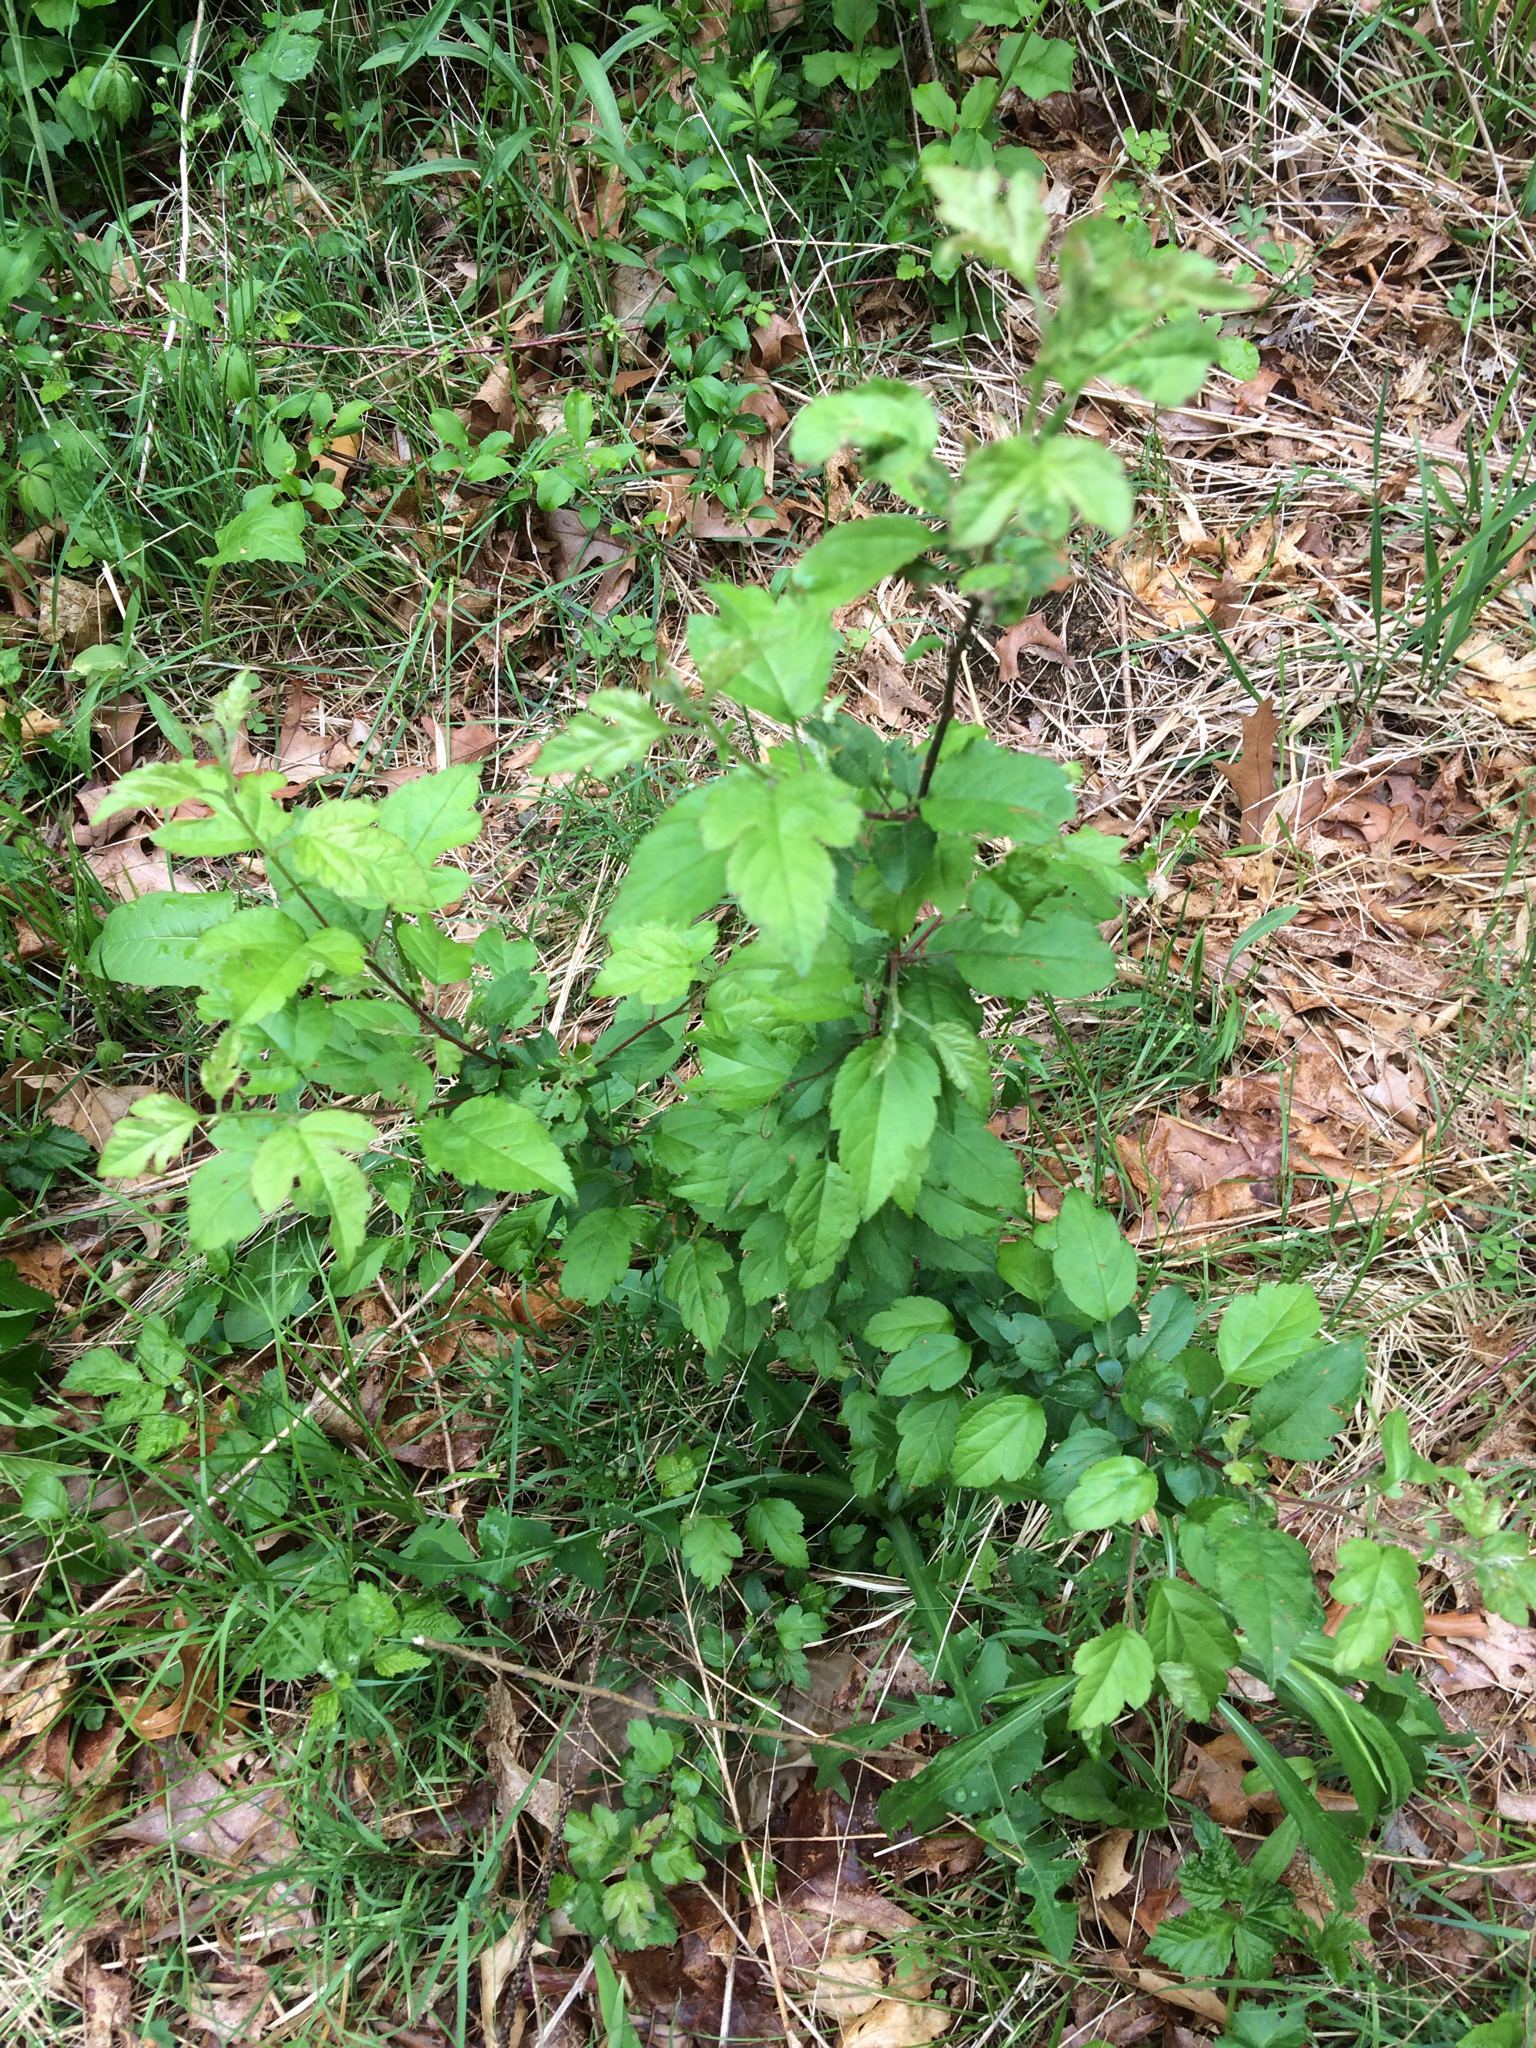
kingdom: Plantae
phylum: Tracheophyta
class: Magnoliopsida
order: Rosales
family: Rosaceae
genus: Malus
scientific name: Malus
